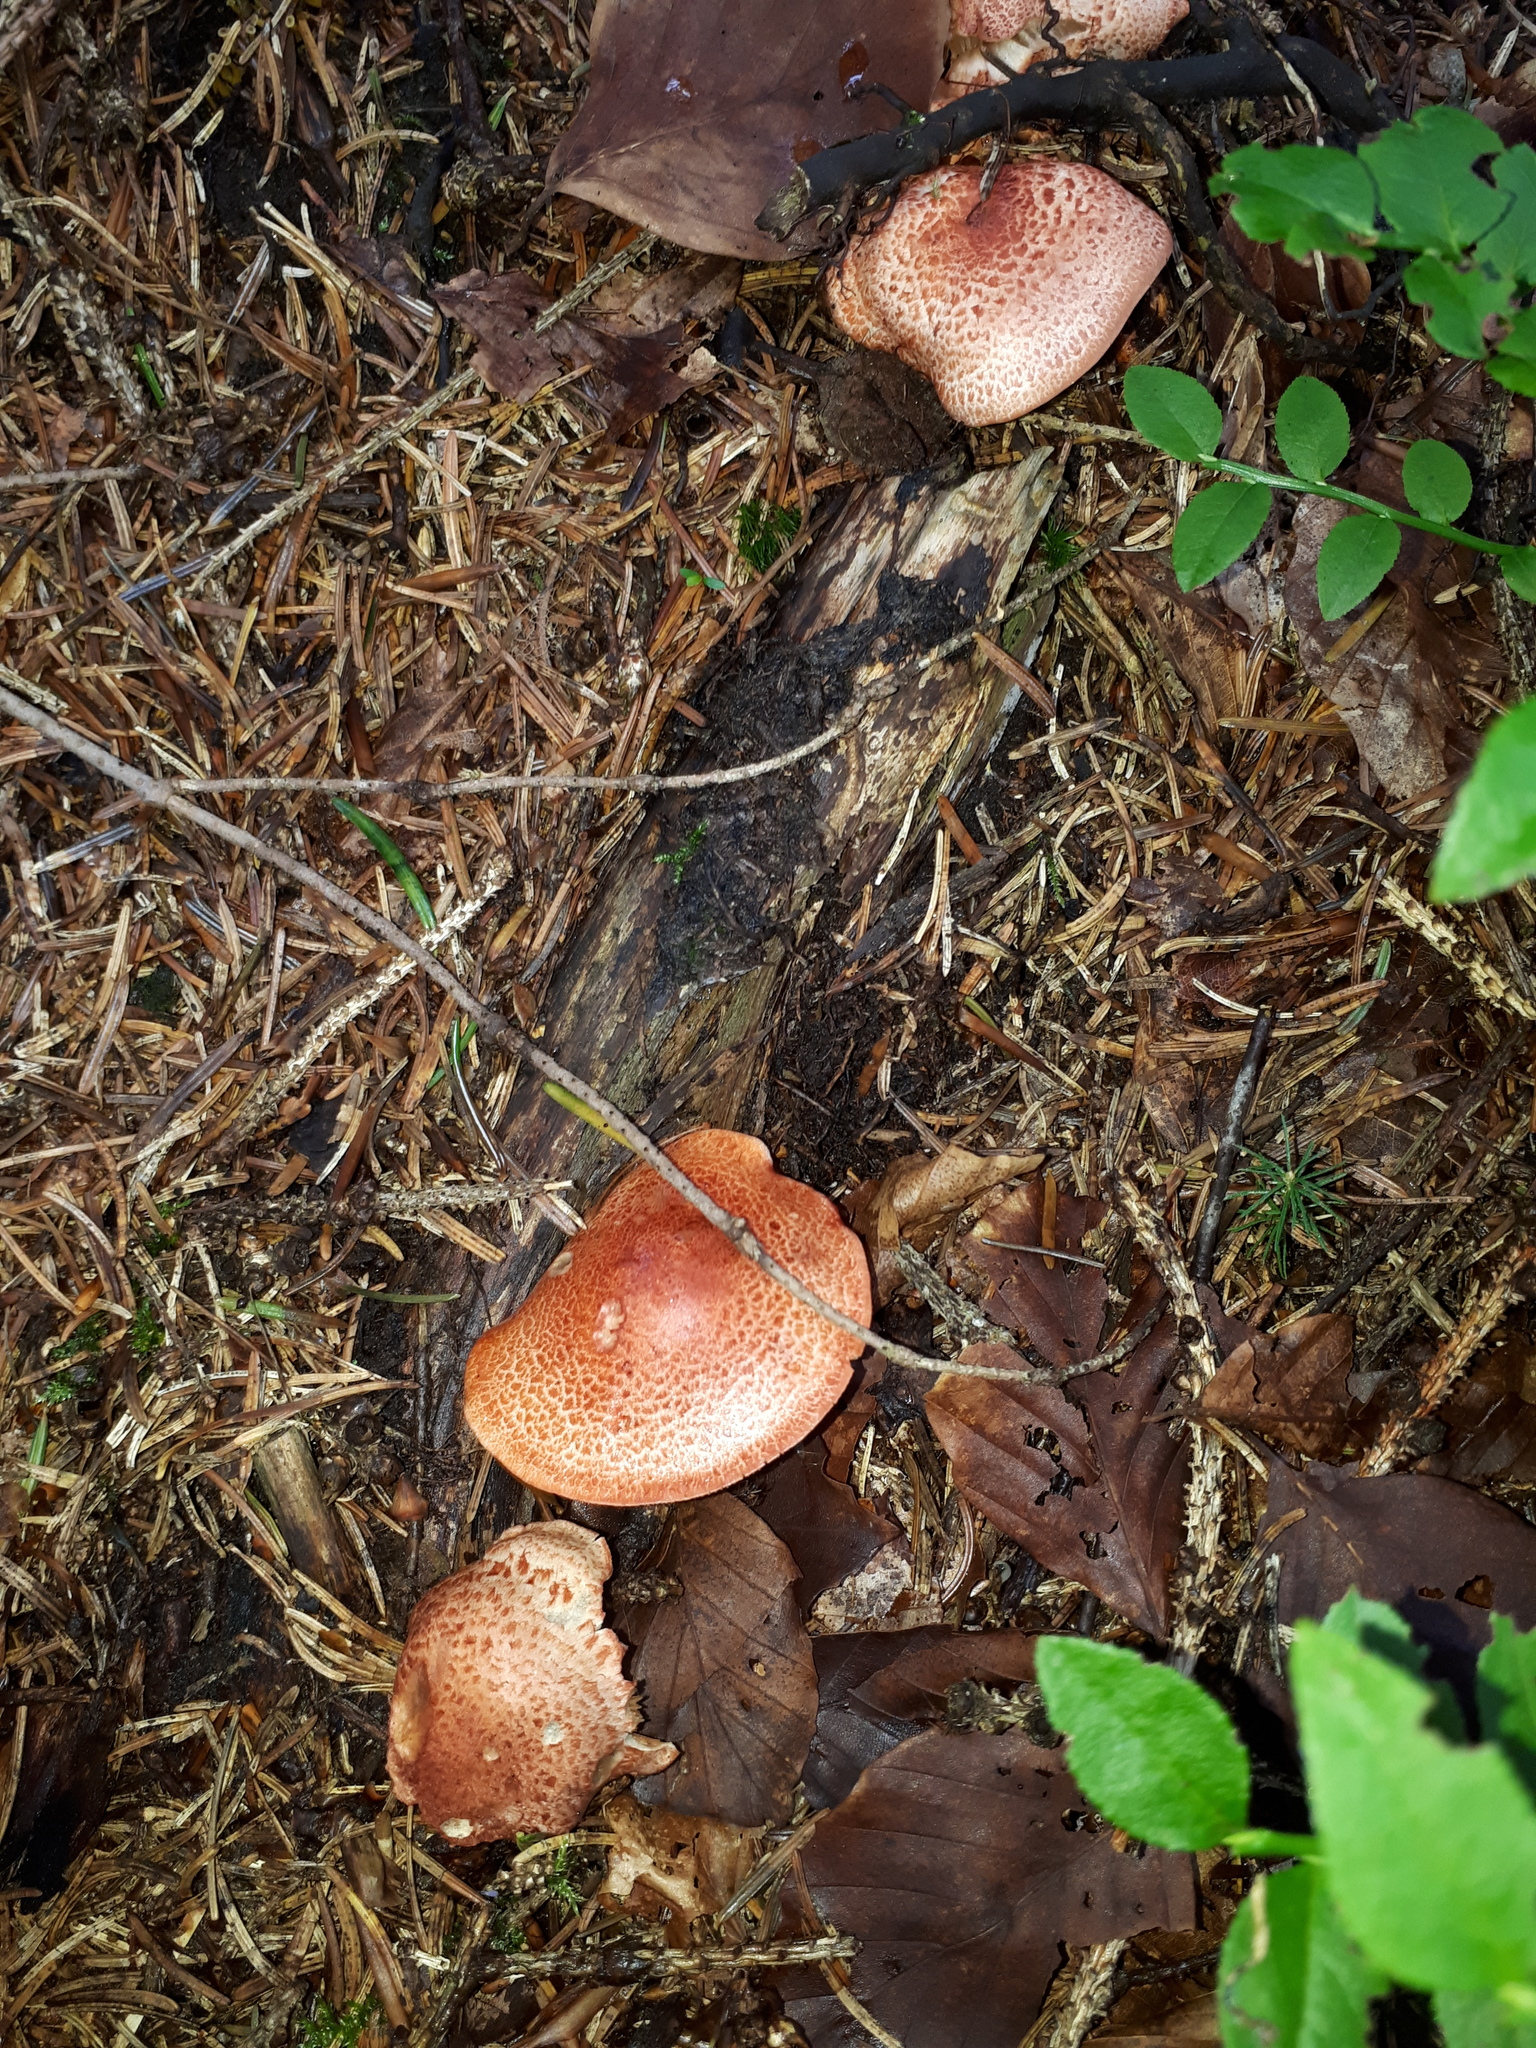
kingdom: Fungi
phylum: Basidiomycota
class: Agaricomycetes
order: Agaricales
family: Cortinariaceae
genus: Cortinarius
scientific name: Cortinarius bolaris
